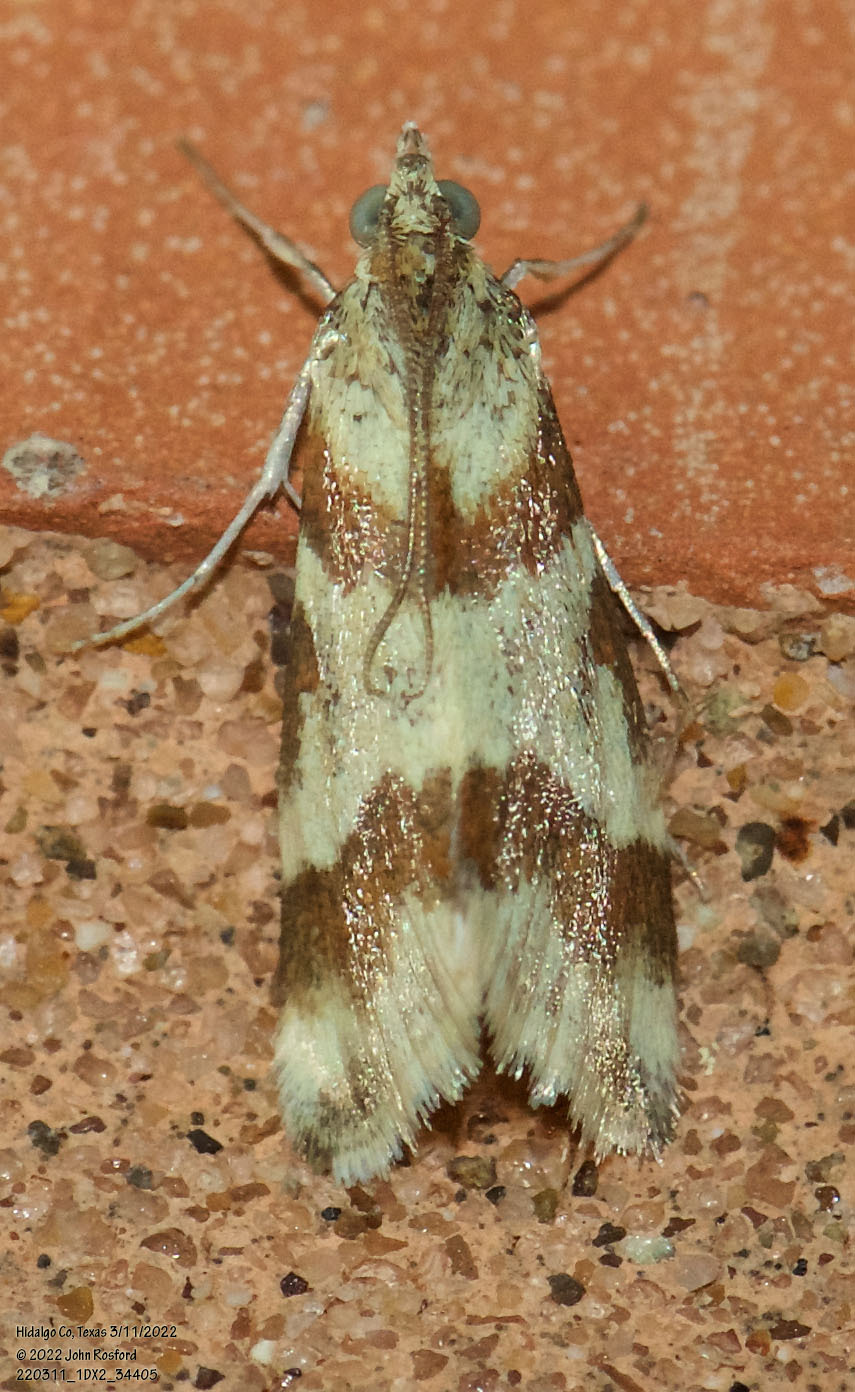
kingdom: Animalia
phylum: Arthropoda
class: Insecta
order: Lepidoptera
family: Crambidae
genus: Noctuelia
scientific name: Noctuelia Mimoschinia rufofascialis
